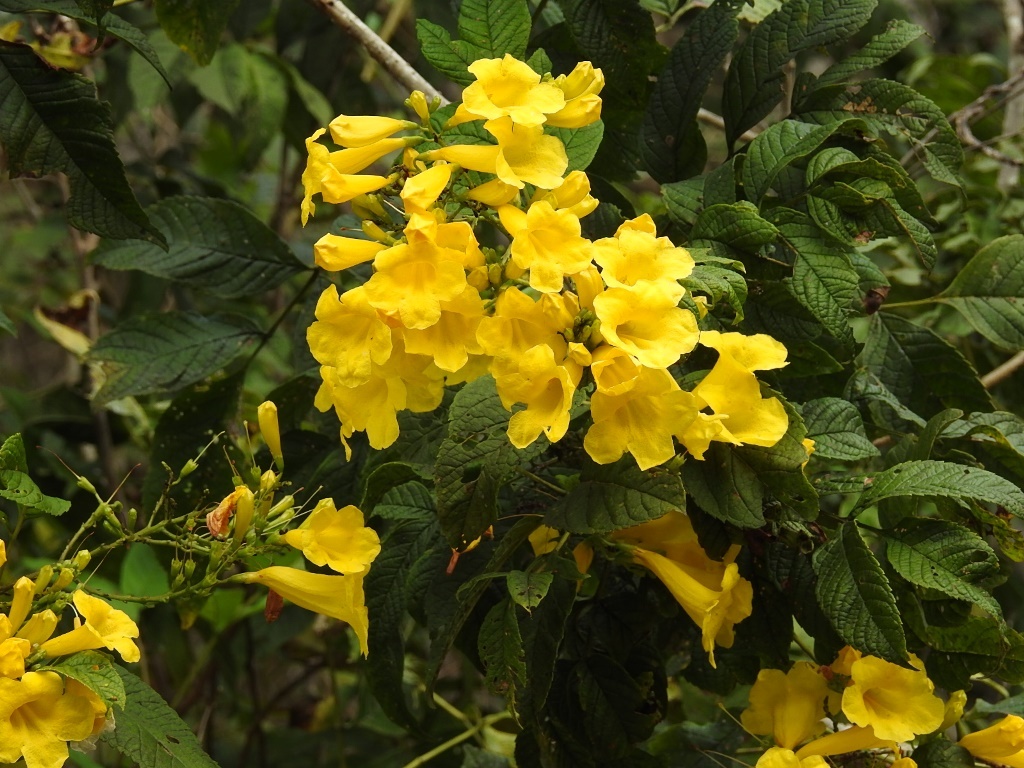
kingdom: Plantae
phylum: Tracheophyta
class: Magnoliopsida
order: Lamiales
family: Bignoniaceae
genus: Tecoma
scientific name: Tecoma stans
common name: Yellow trumpetbush
